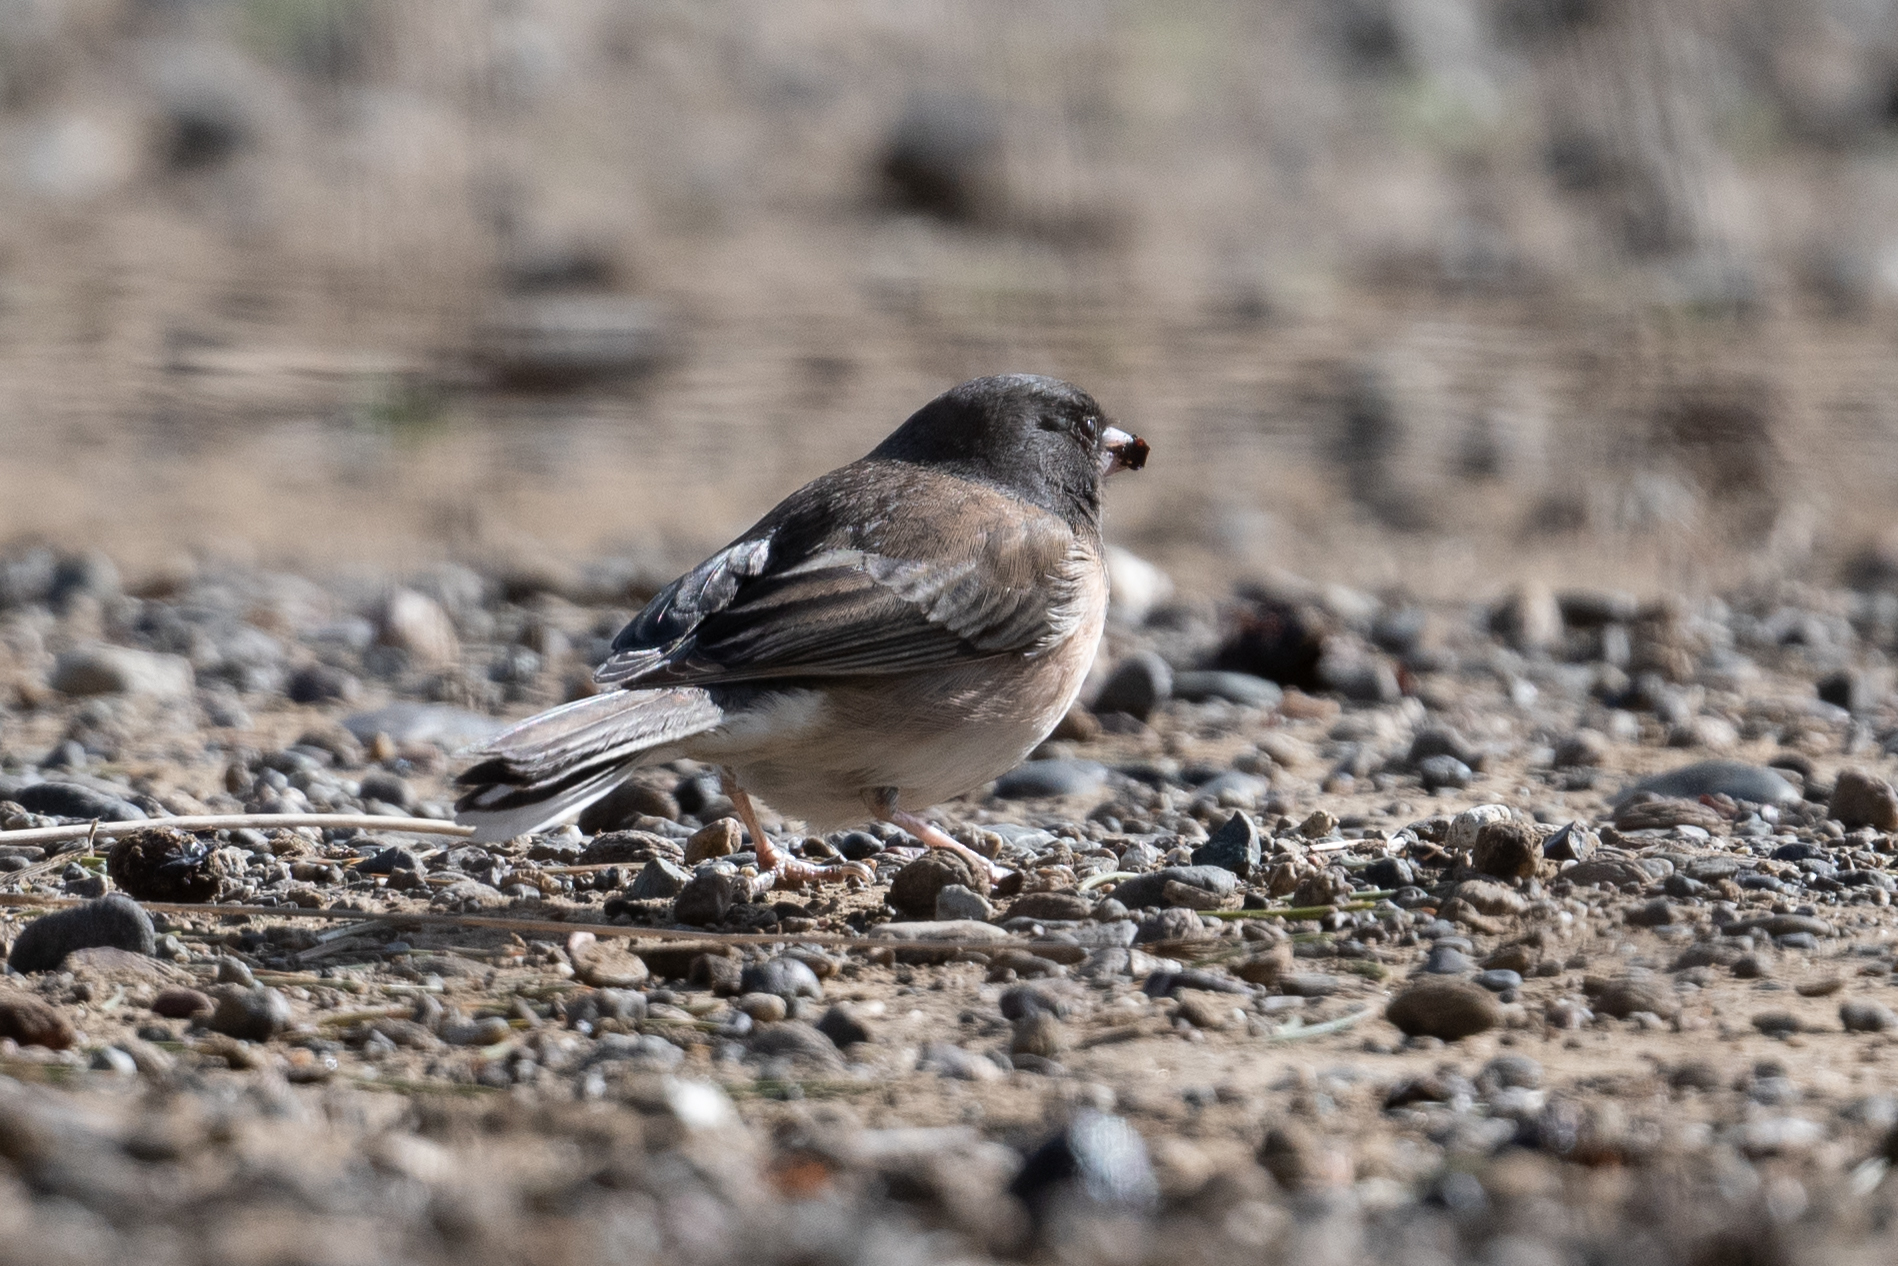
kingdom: Animalia
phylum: Chordata
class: Aves
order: Passeriformes
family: Passerellidae
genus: Junco
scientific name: Junco hyemalis
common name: Dark-eyed junco
